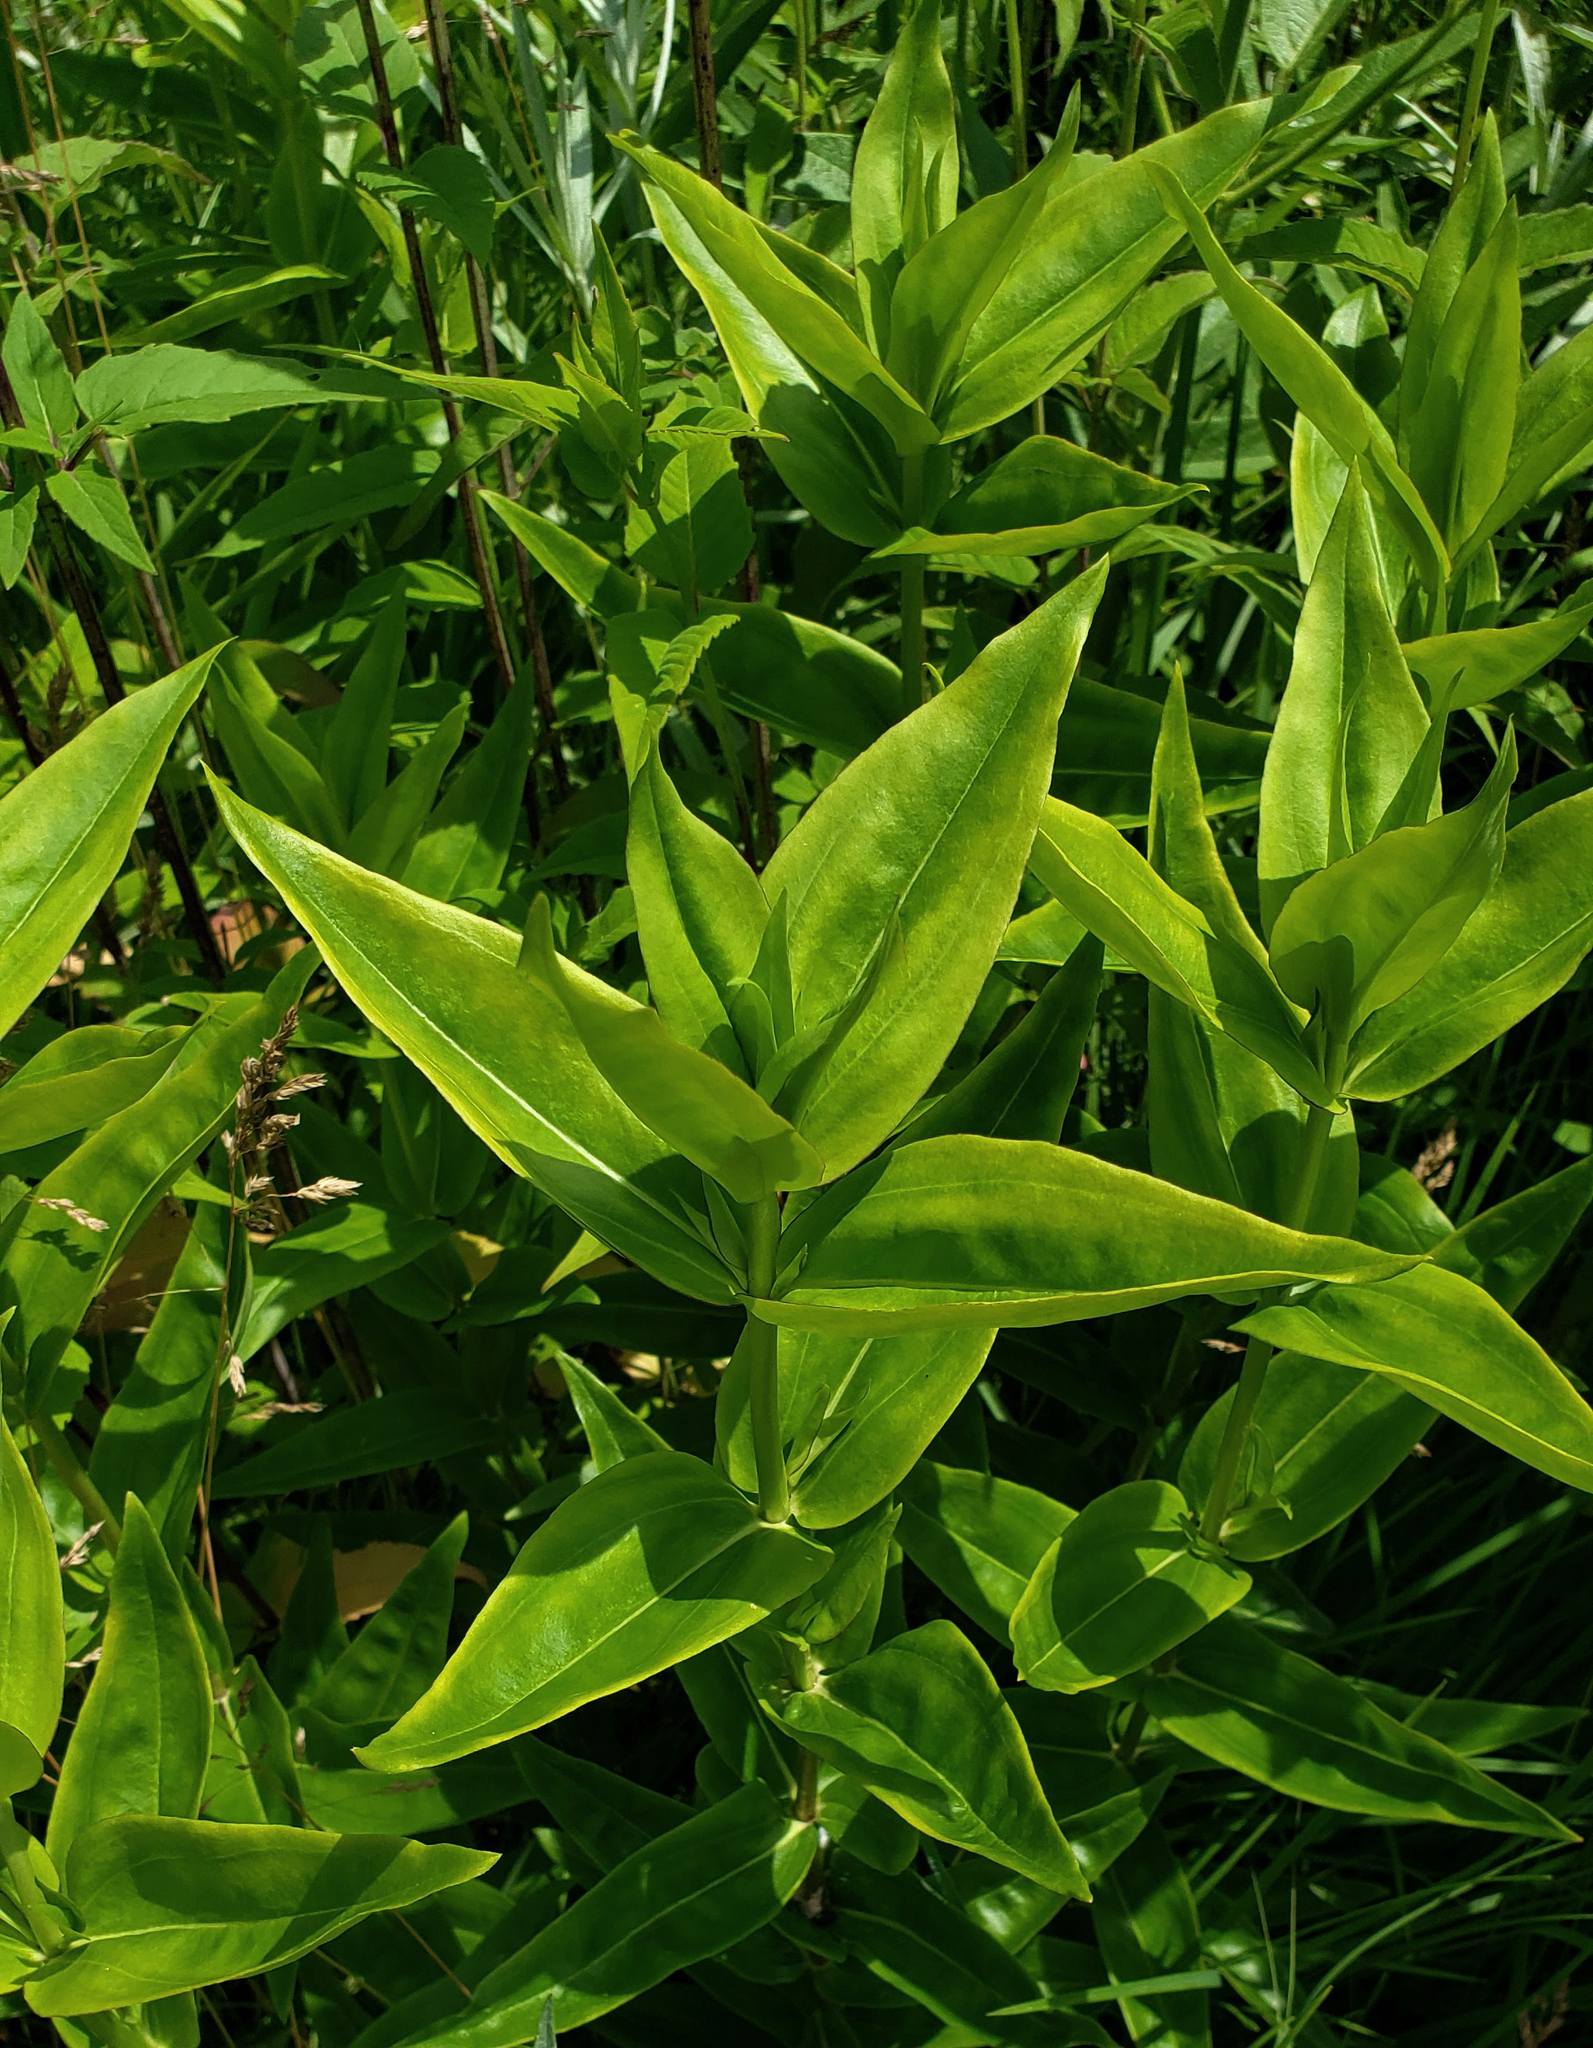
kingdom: Plantae
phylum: Tracheophyta
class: Magnoliopsida
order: Gentianales
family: Gentianaceae
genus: Gentiana
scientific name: Gentiana alba
